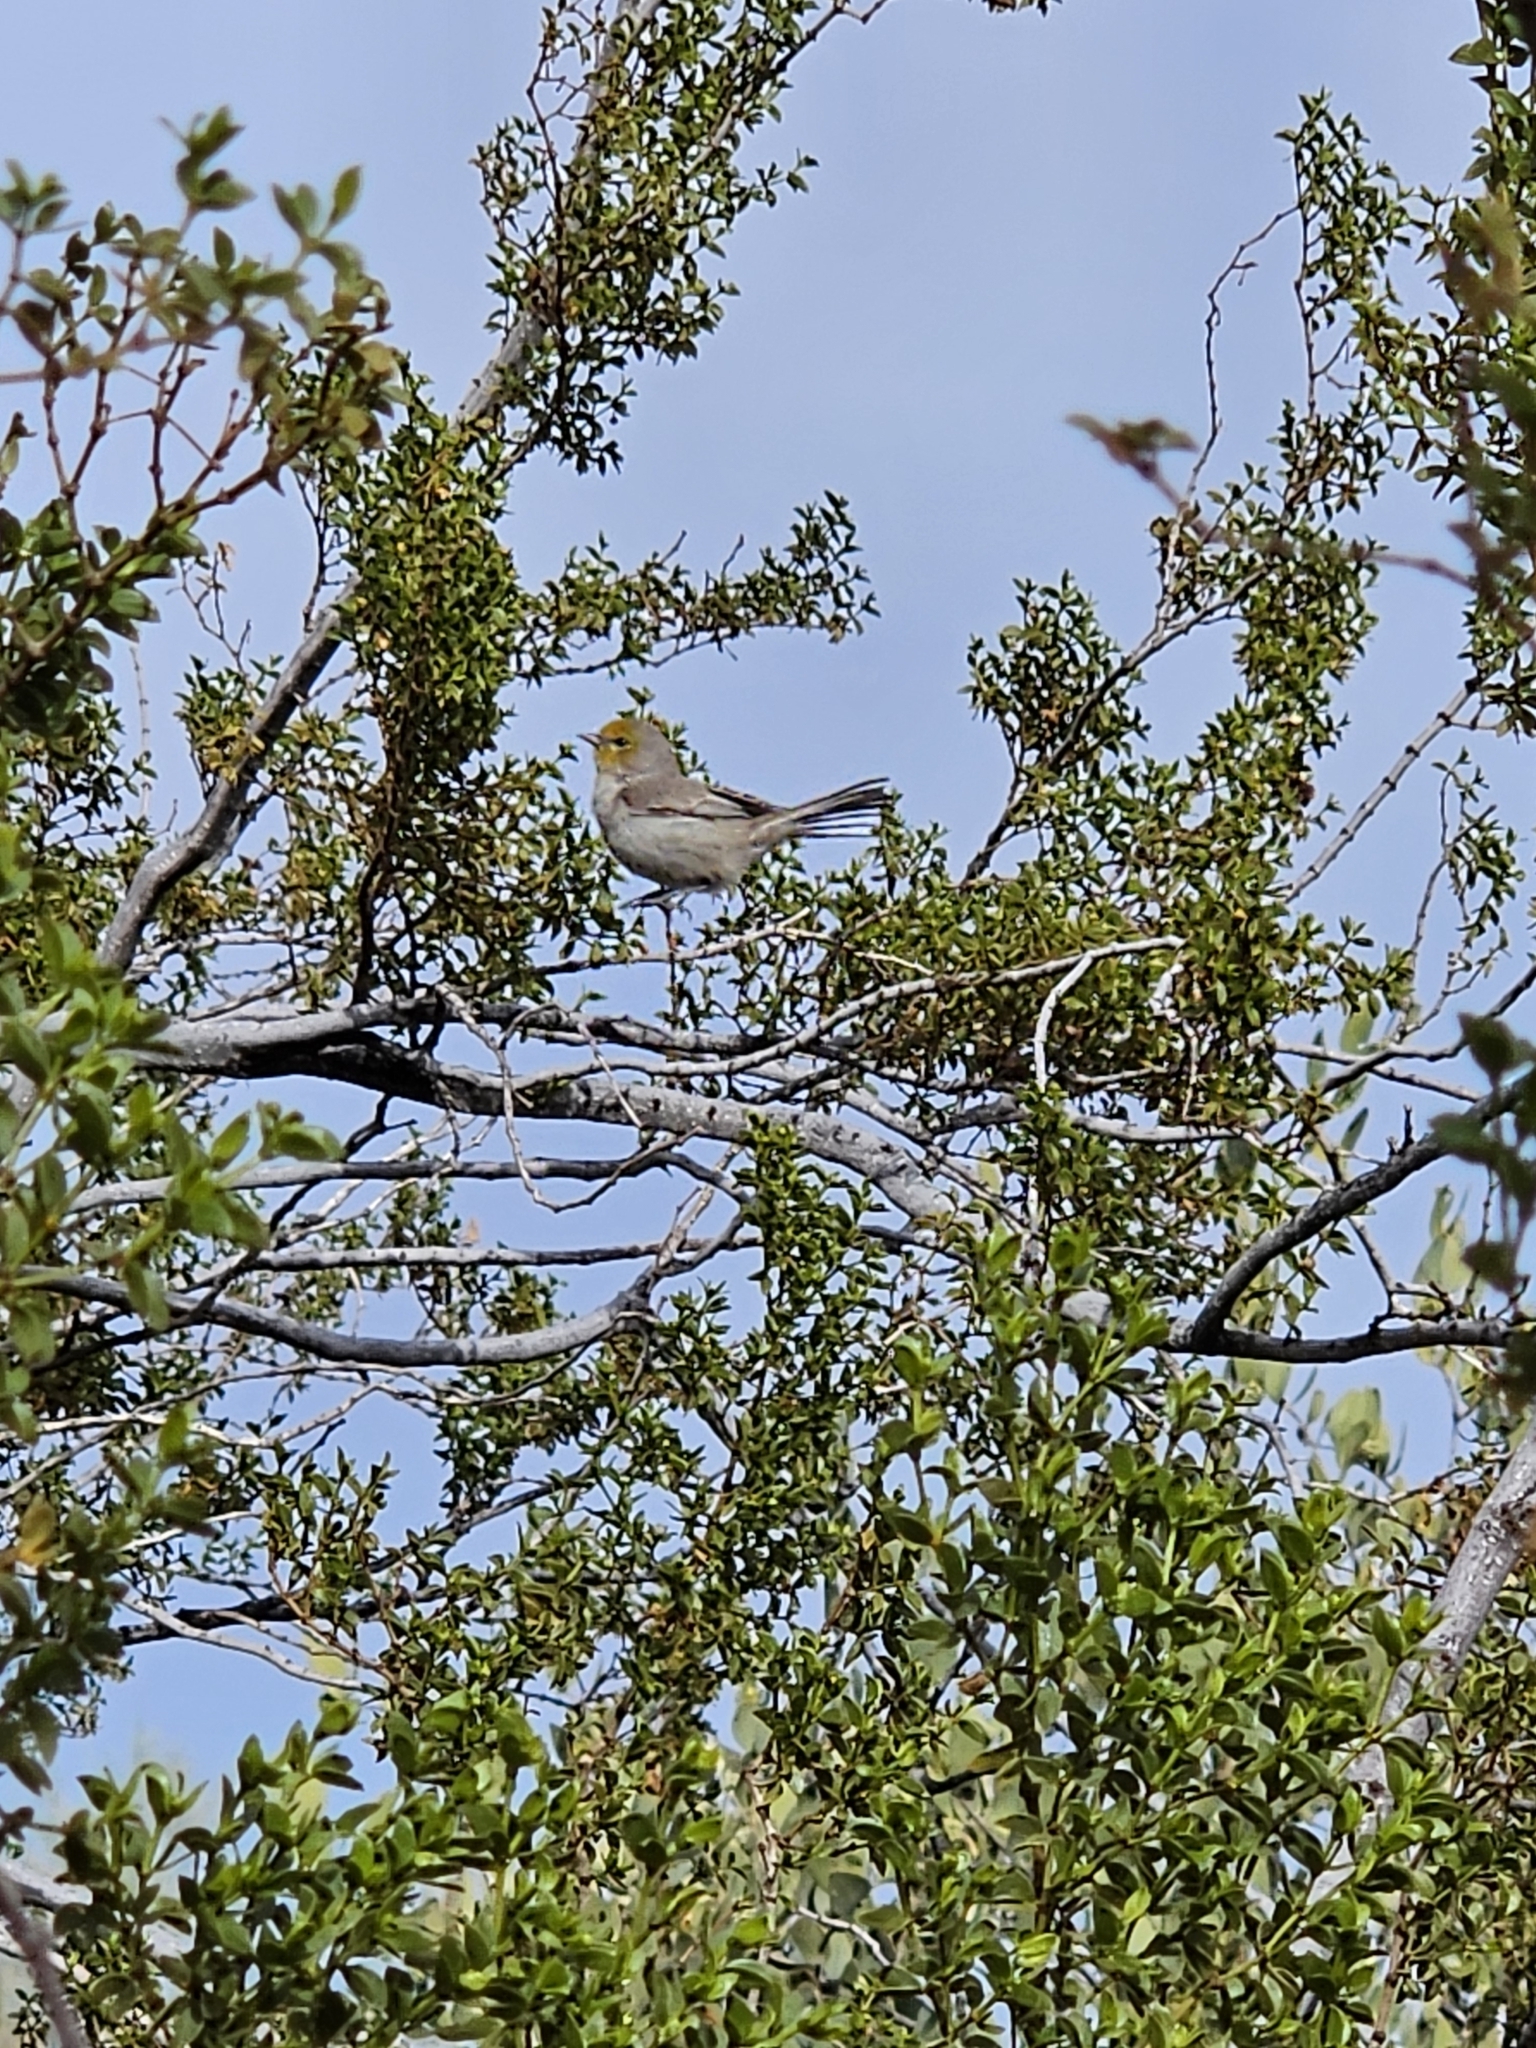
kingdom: Animalia
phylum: Chordata
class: Aves
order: Passeriformes
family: Remizidae
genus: Auriparus
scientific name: Auriparus flaviceps
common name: Verdin
